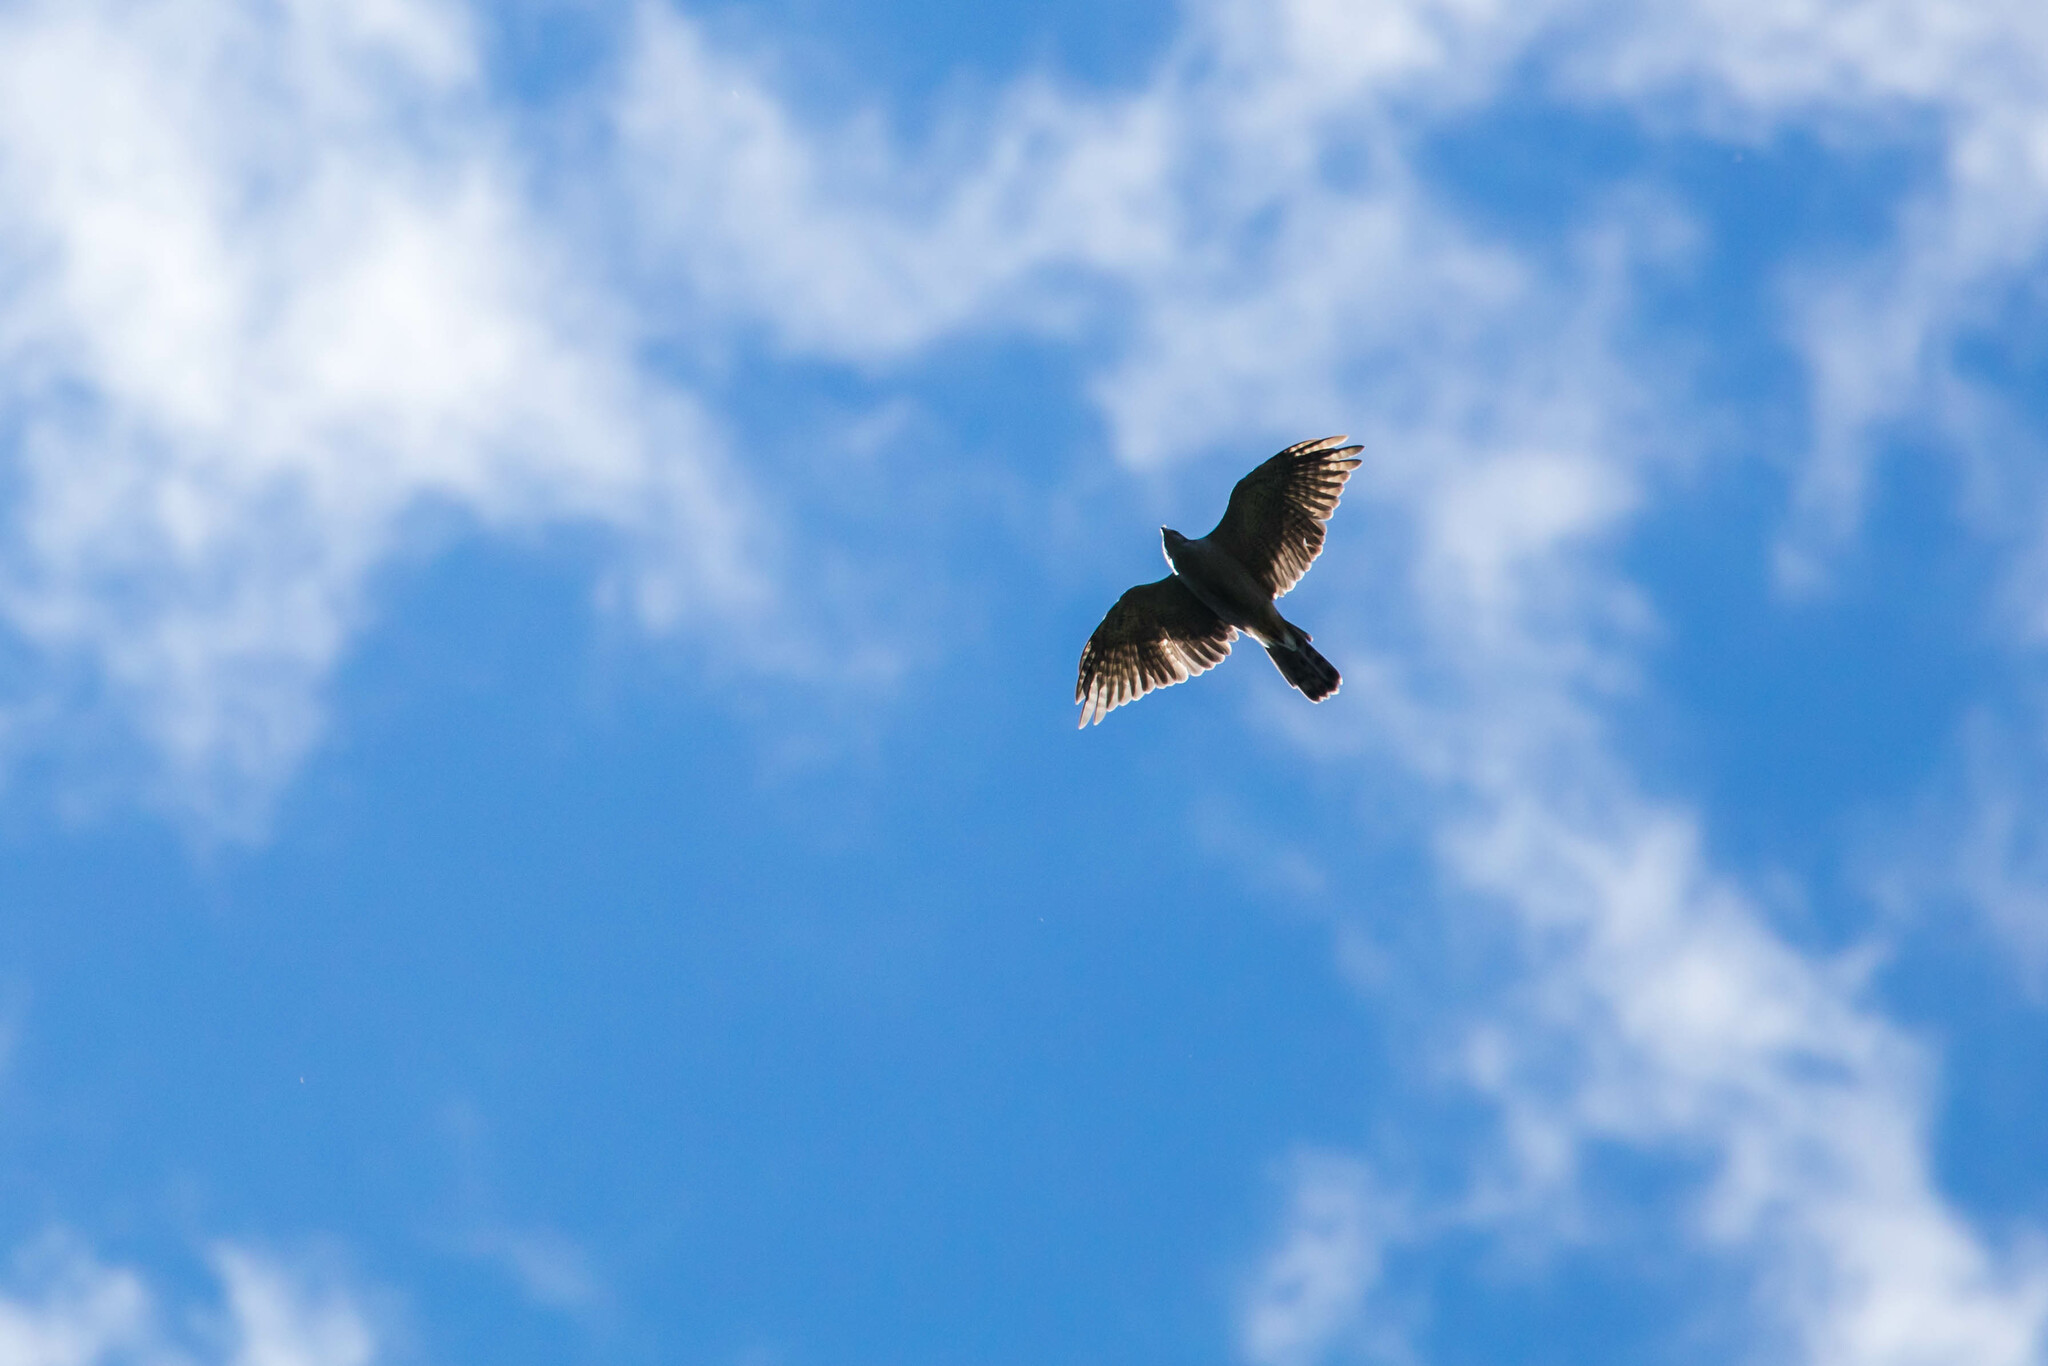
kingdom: Animalia
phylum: Chordata
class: Aves
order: Accipitriformes
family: Accipitridae
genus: Accipiter
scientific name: Accipiter cooperii
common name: Cooper's hawk
